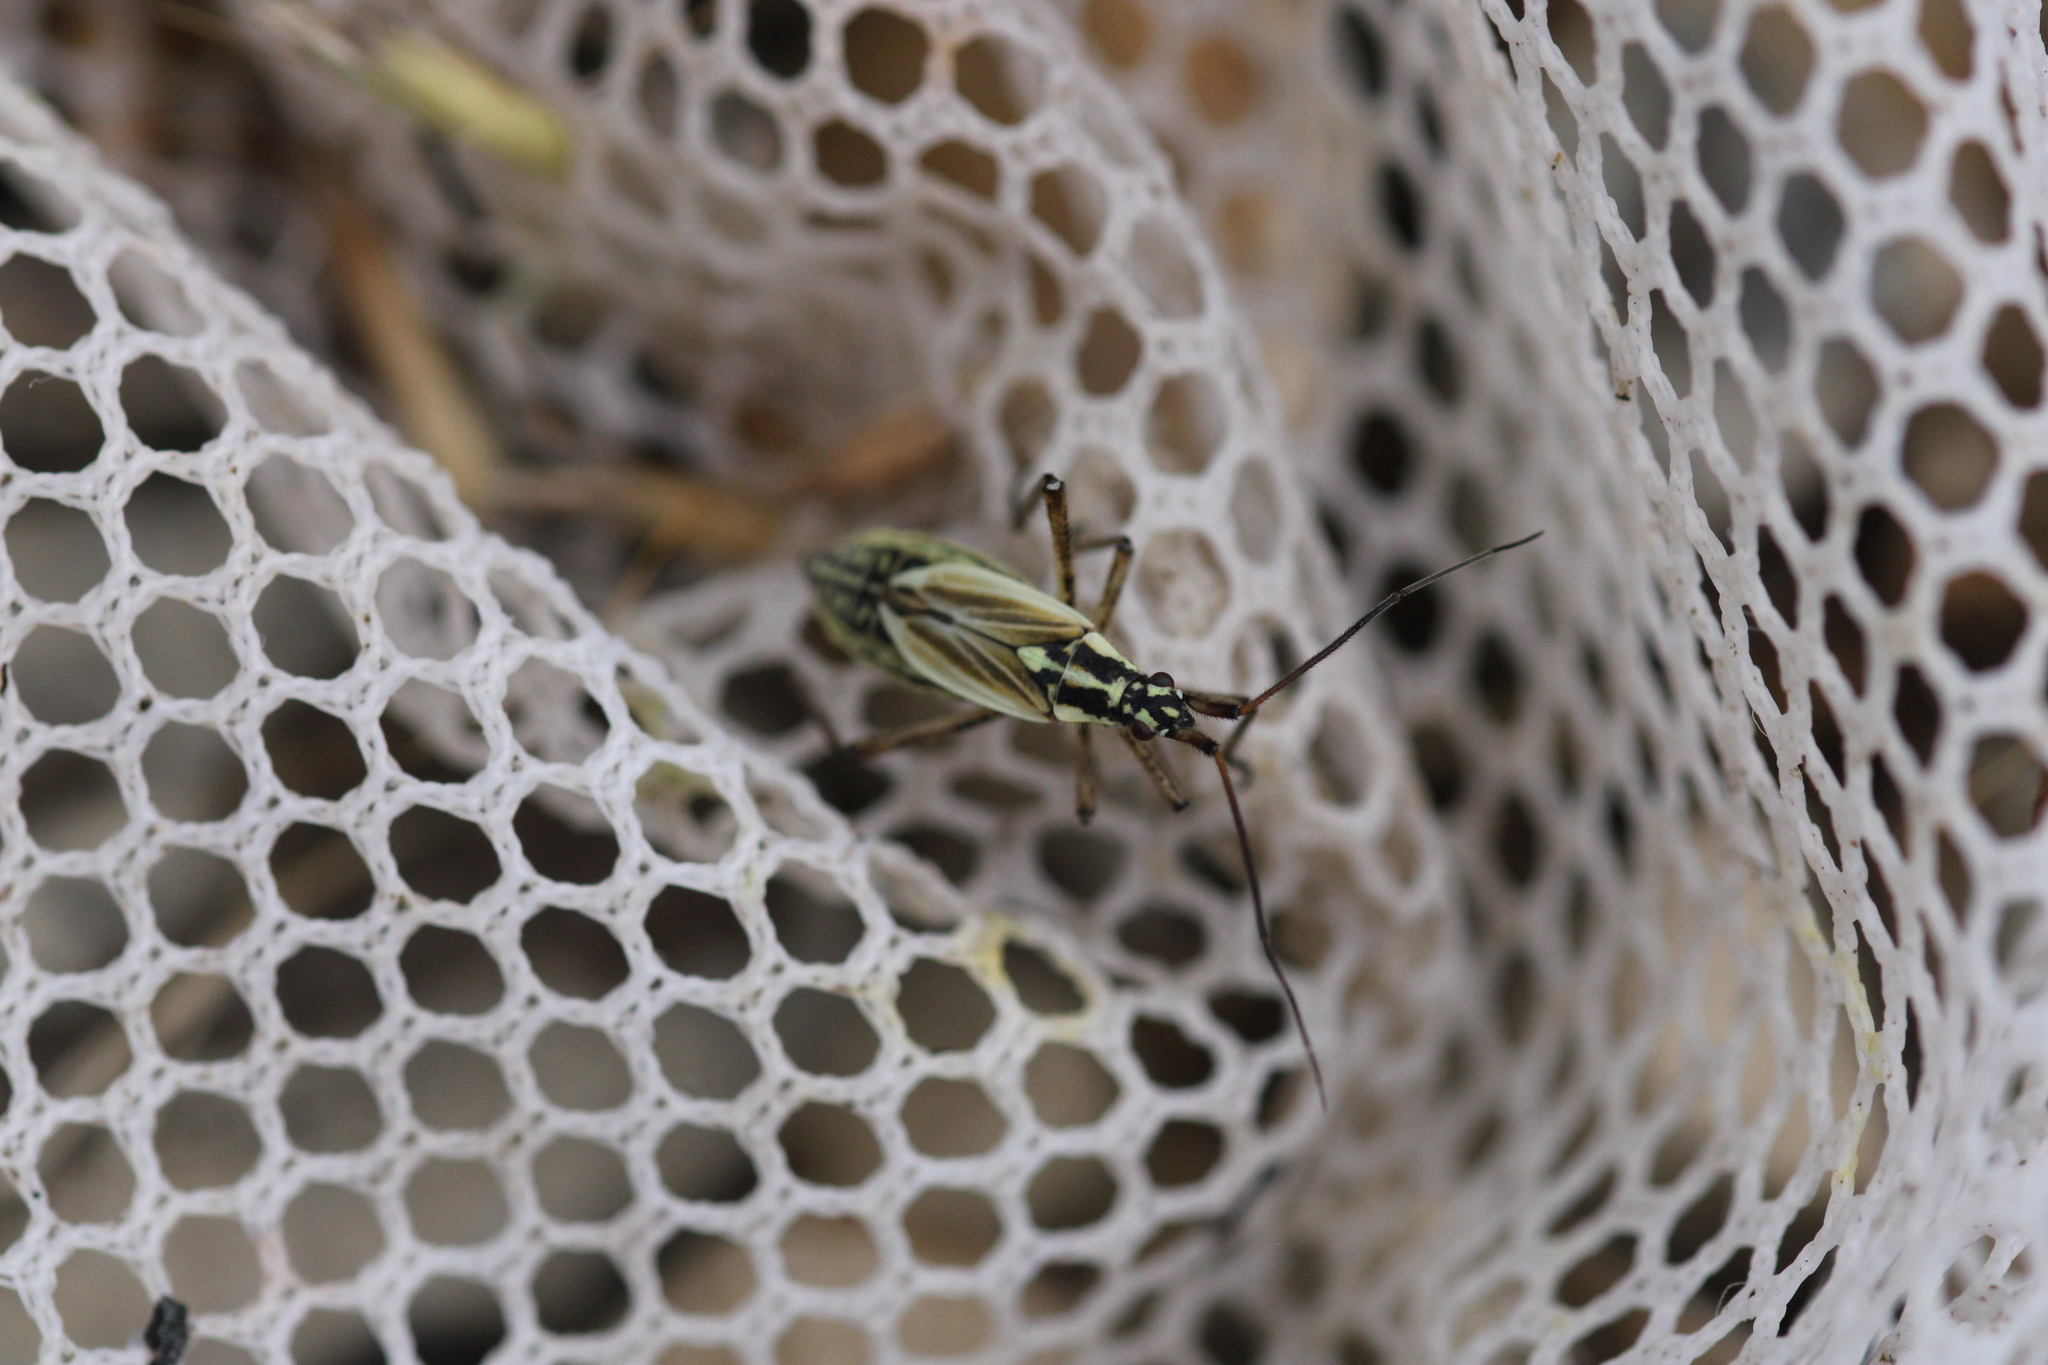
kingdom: Animalia
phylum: Arthropoda
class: Insecta
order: Hemiptera
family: Miridae
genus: Leptopterna
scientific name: Leptopterna dolabrata
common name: Meadow plant bug
